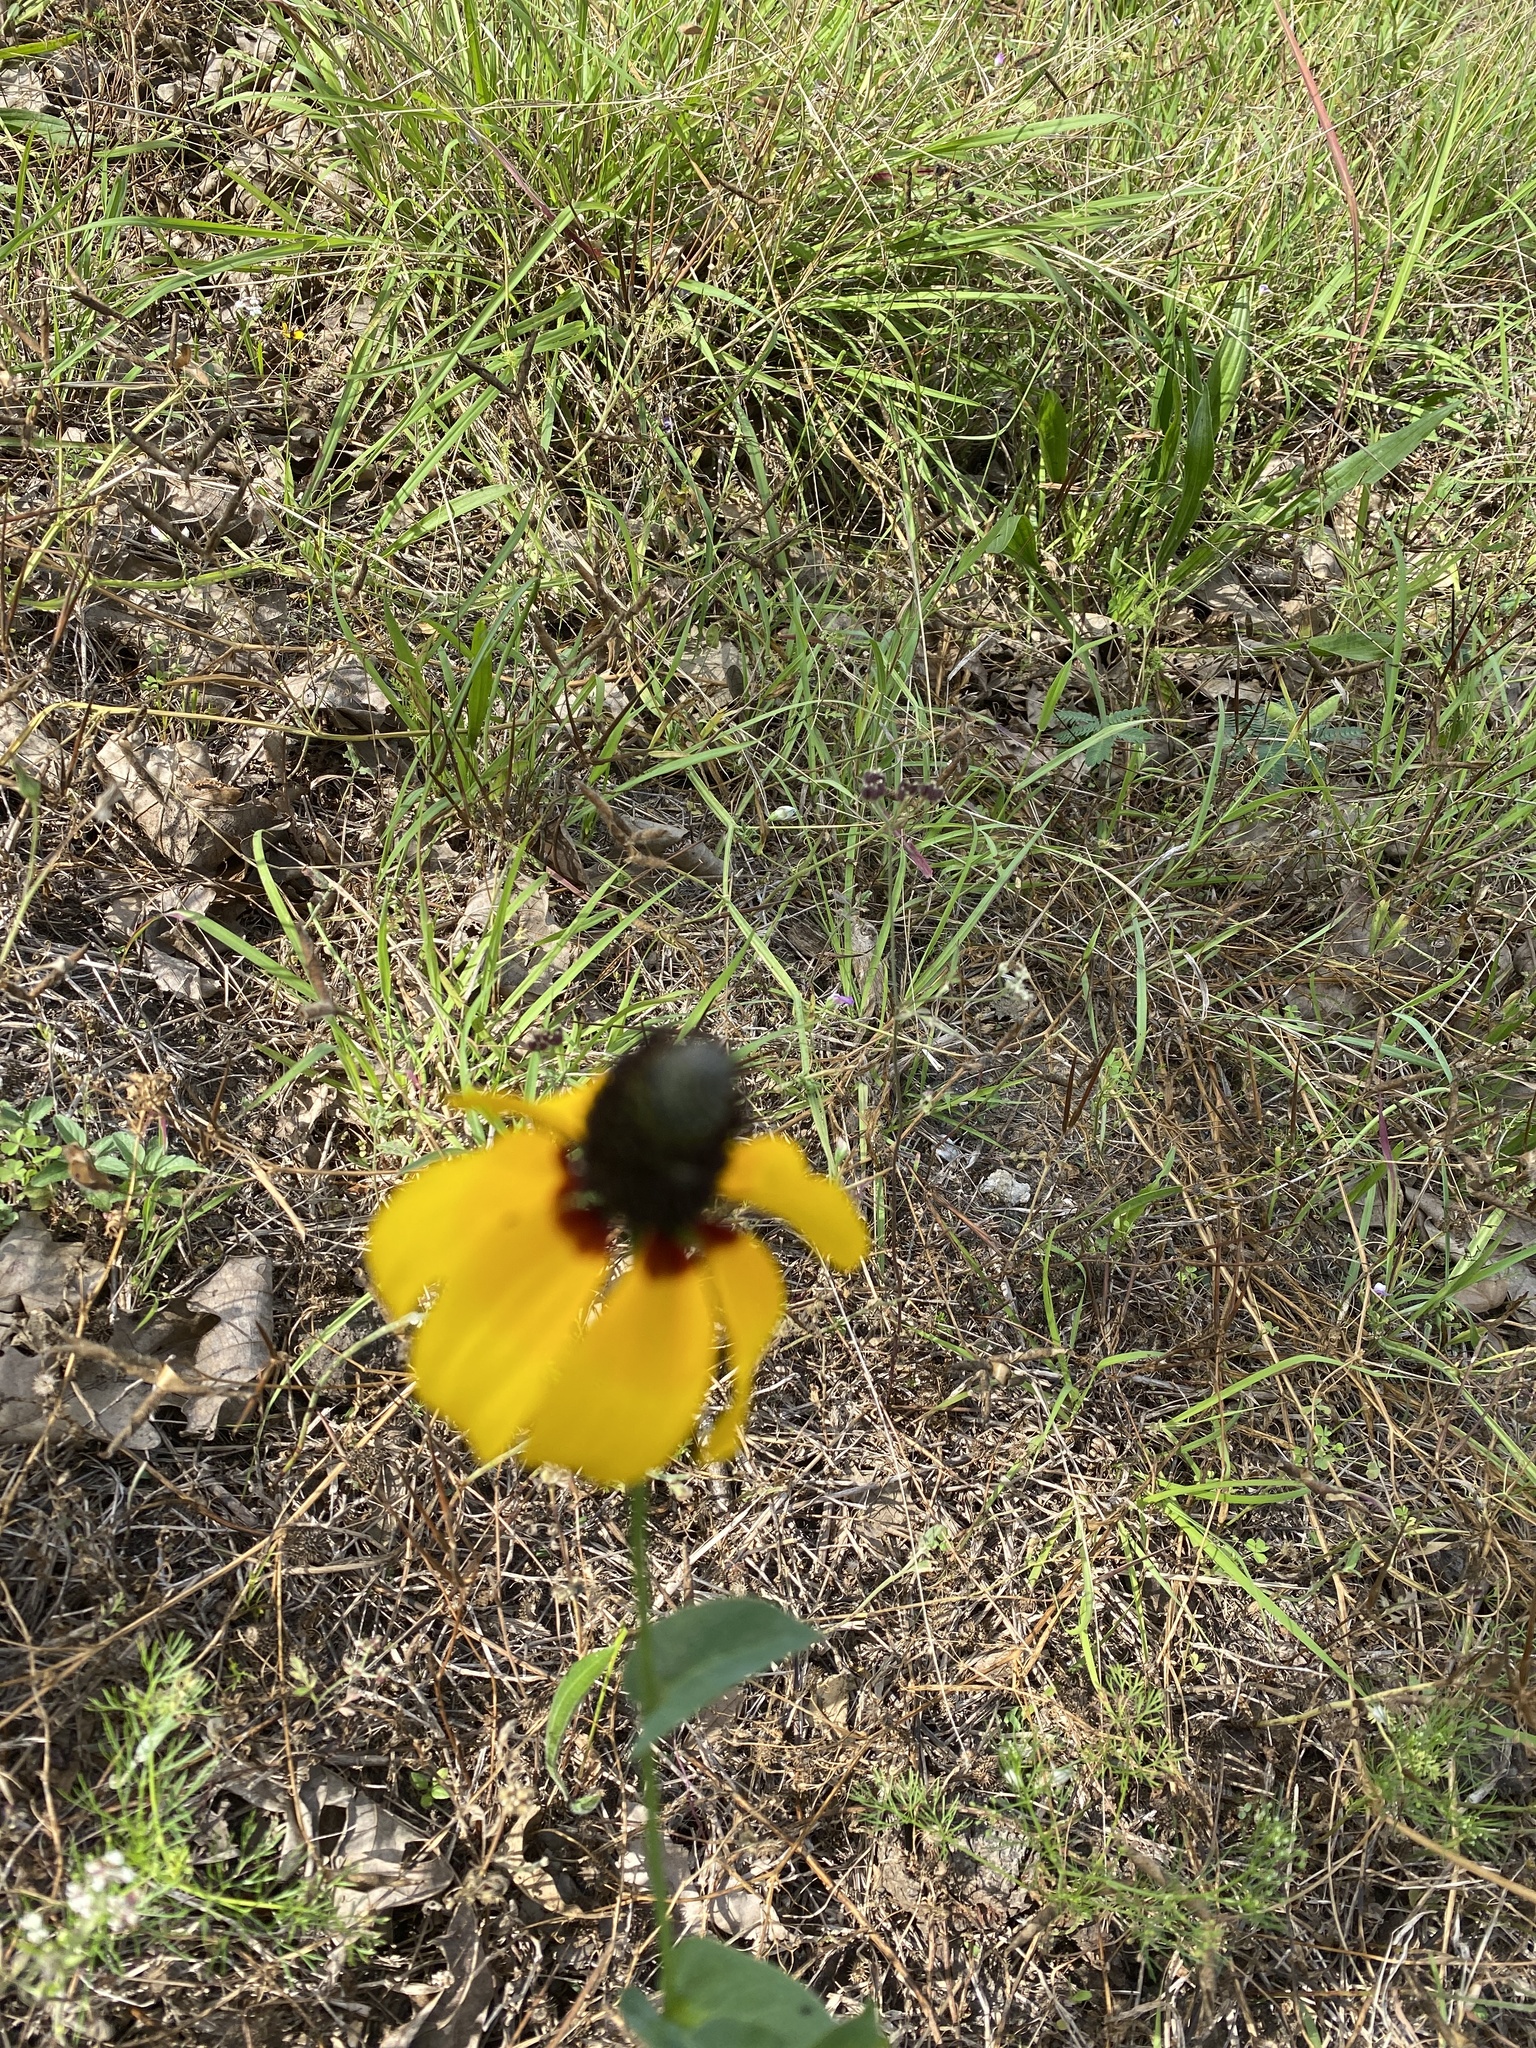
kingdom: Plantae
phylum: Tracheophyta
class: Magnoliopsida
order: Asterales
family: Asteraceae
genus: Rudbeckia
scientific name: Rudbeckia amplexicaulis
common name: Clasping-leaf coneflower
